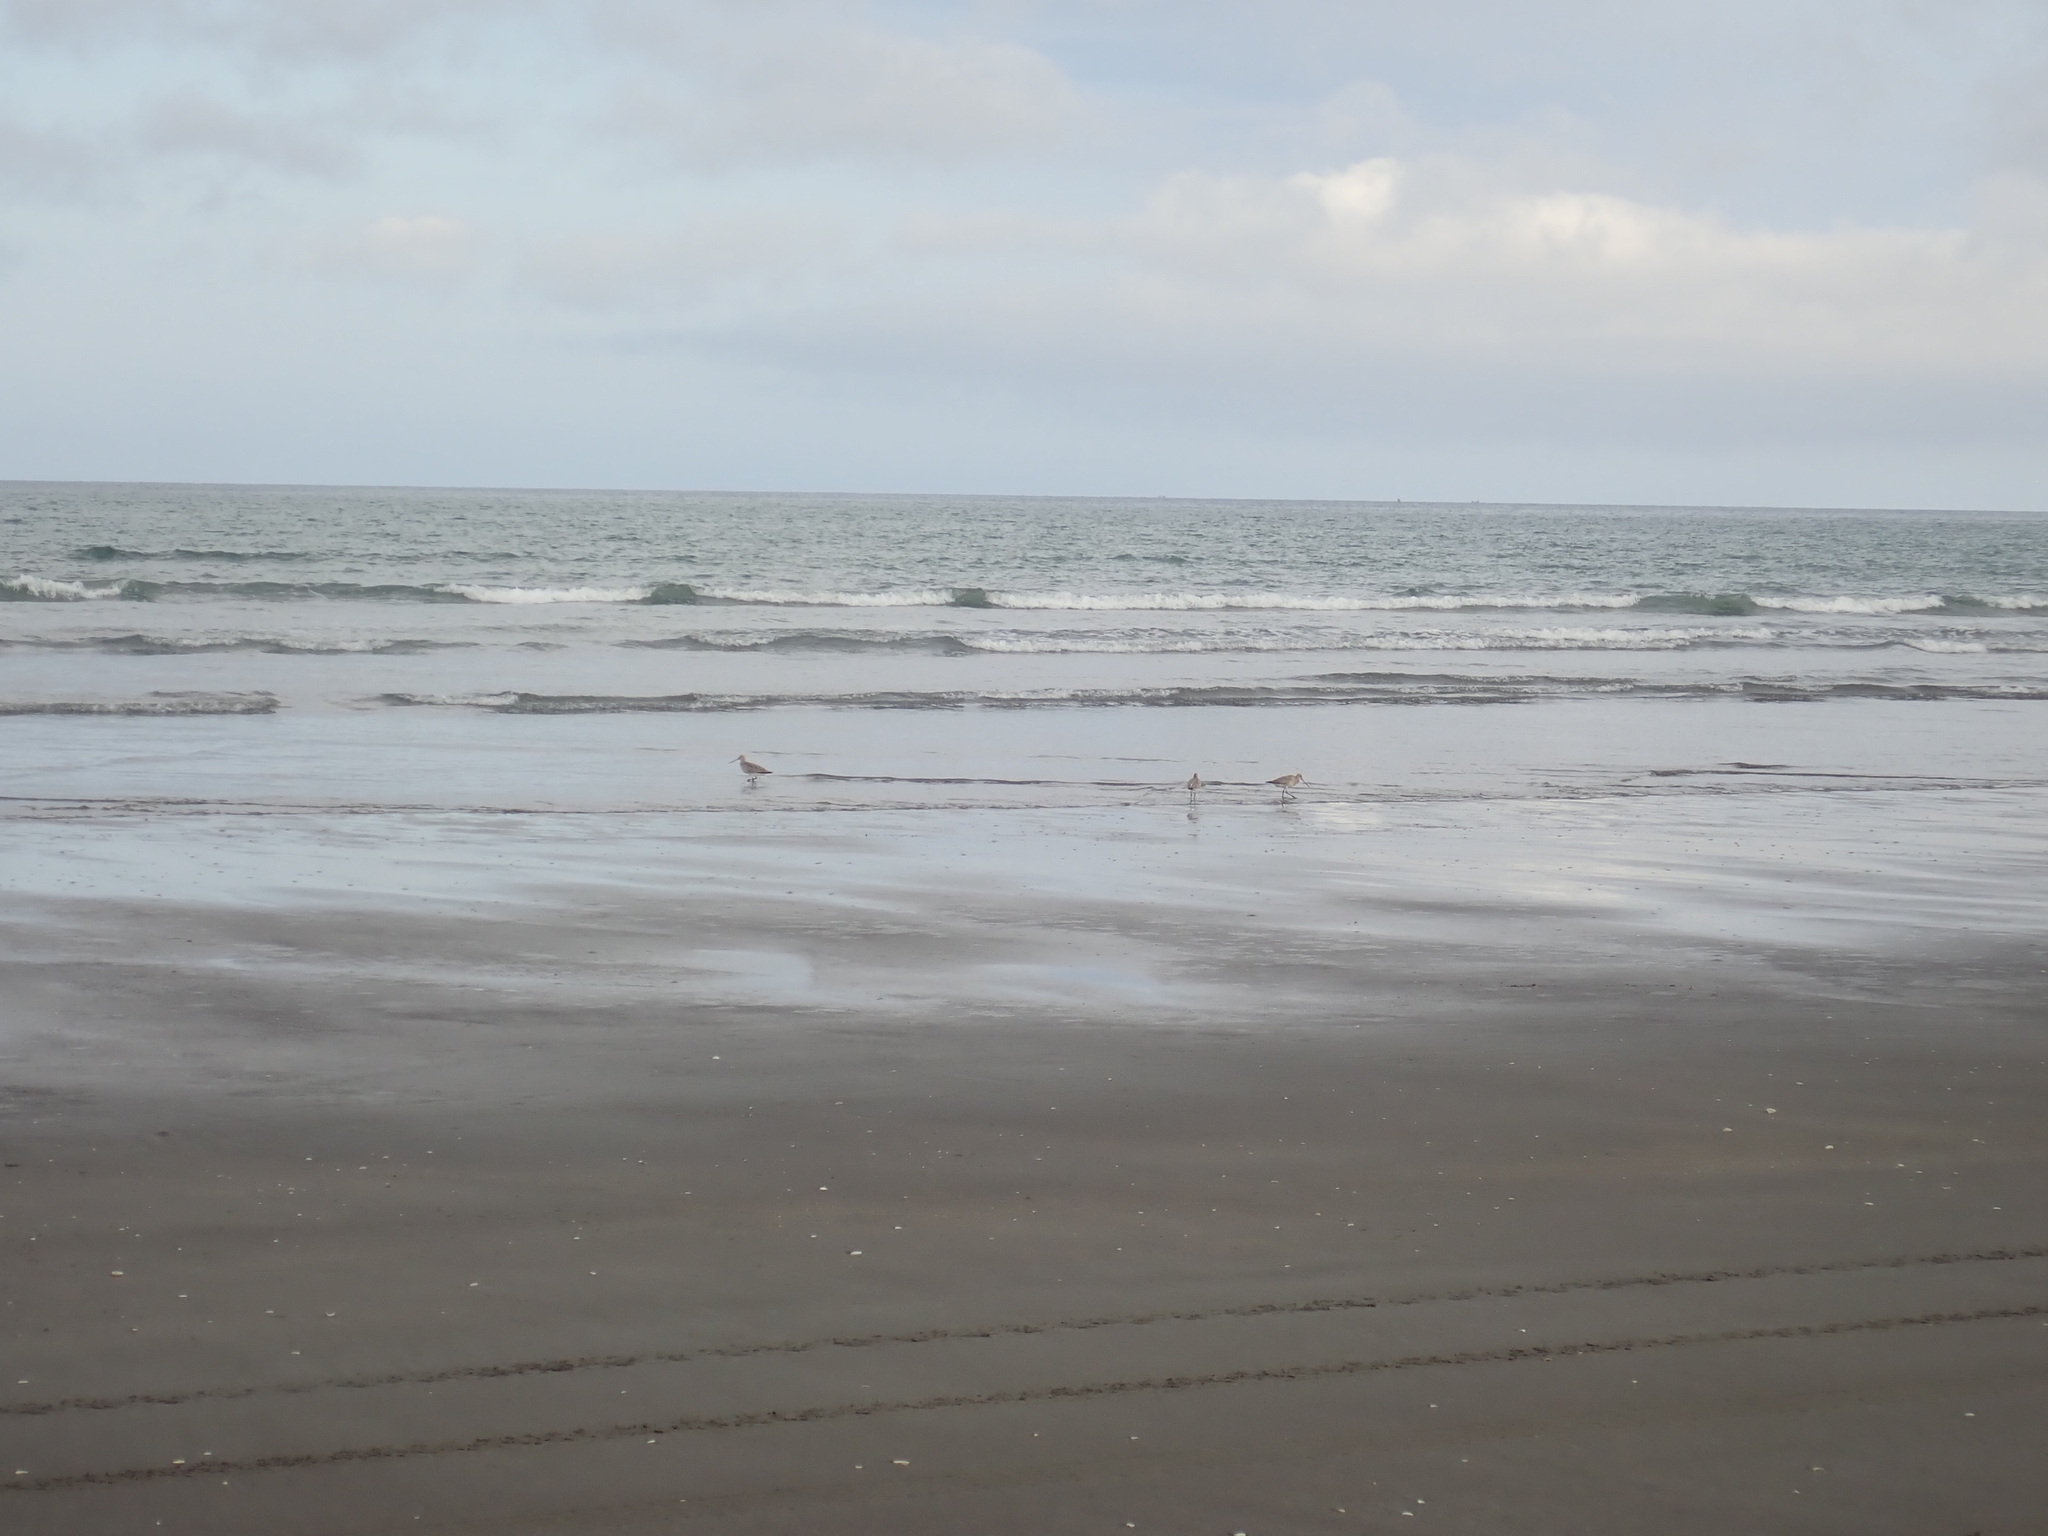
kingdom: Animalia
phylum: Chordata
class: Aves
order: Charadriiformes
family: Scolopacidae
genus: Limosa
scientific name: Limosa lapponica
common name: Bar-tailed godwit
